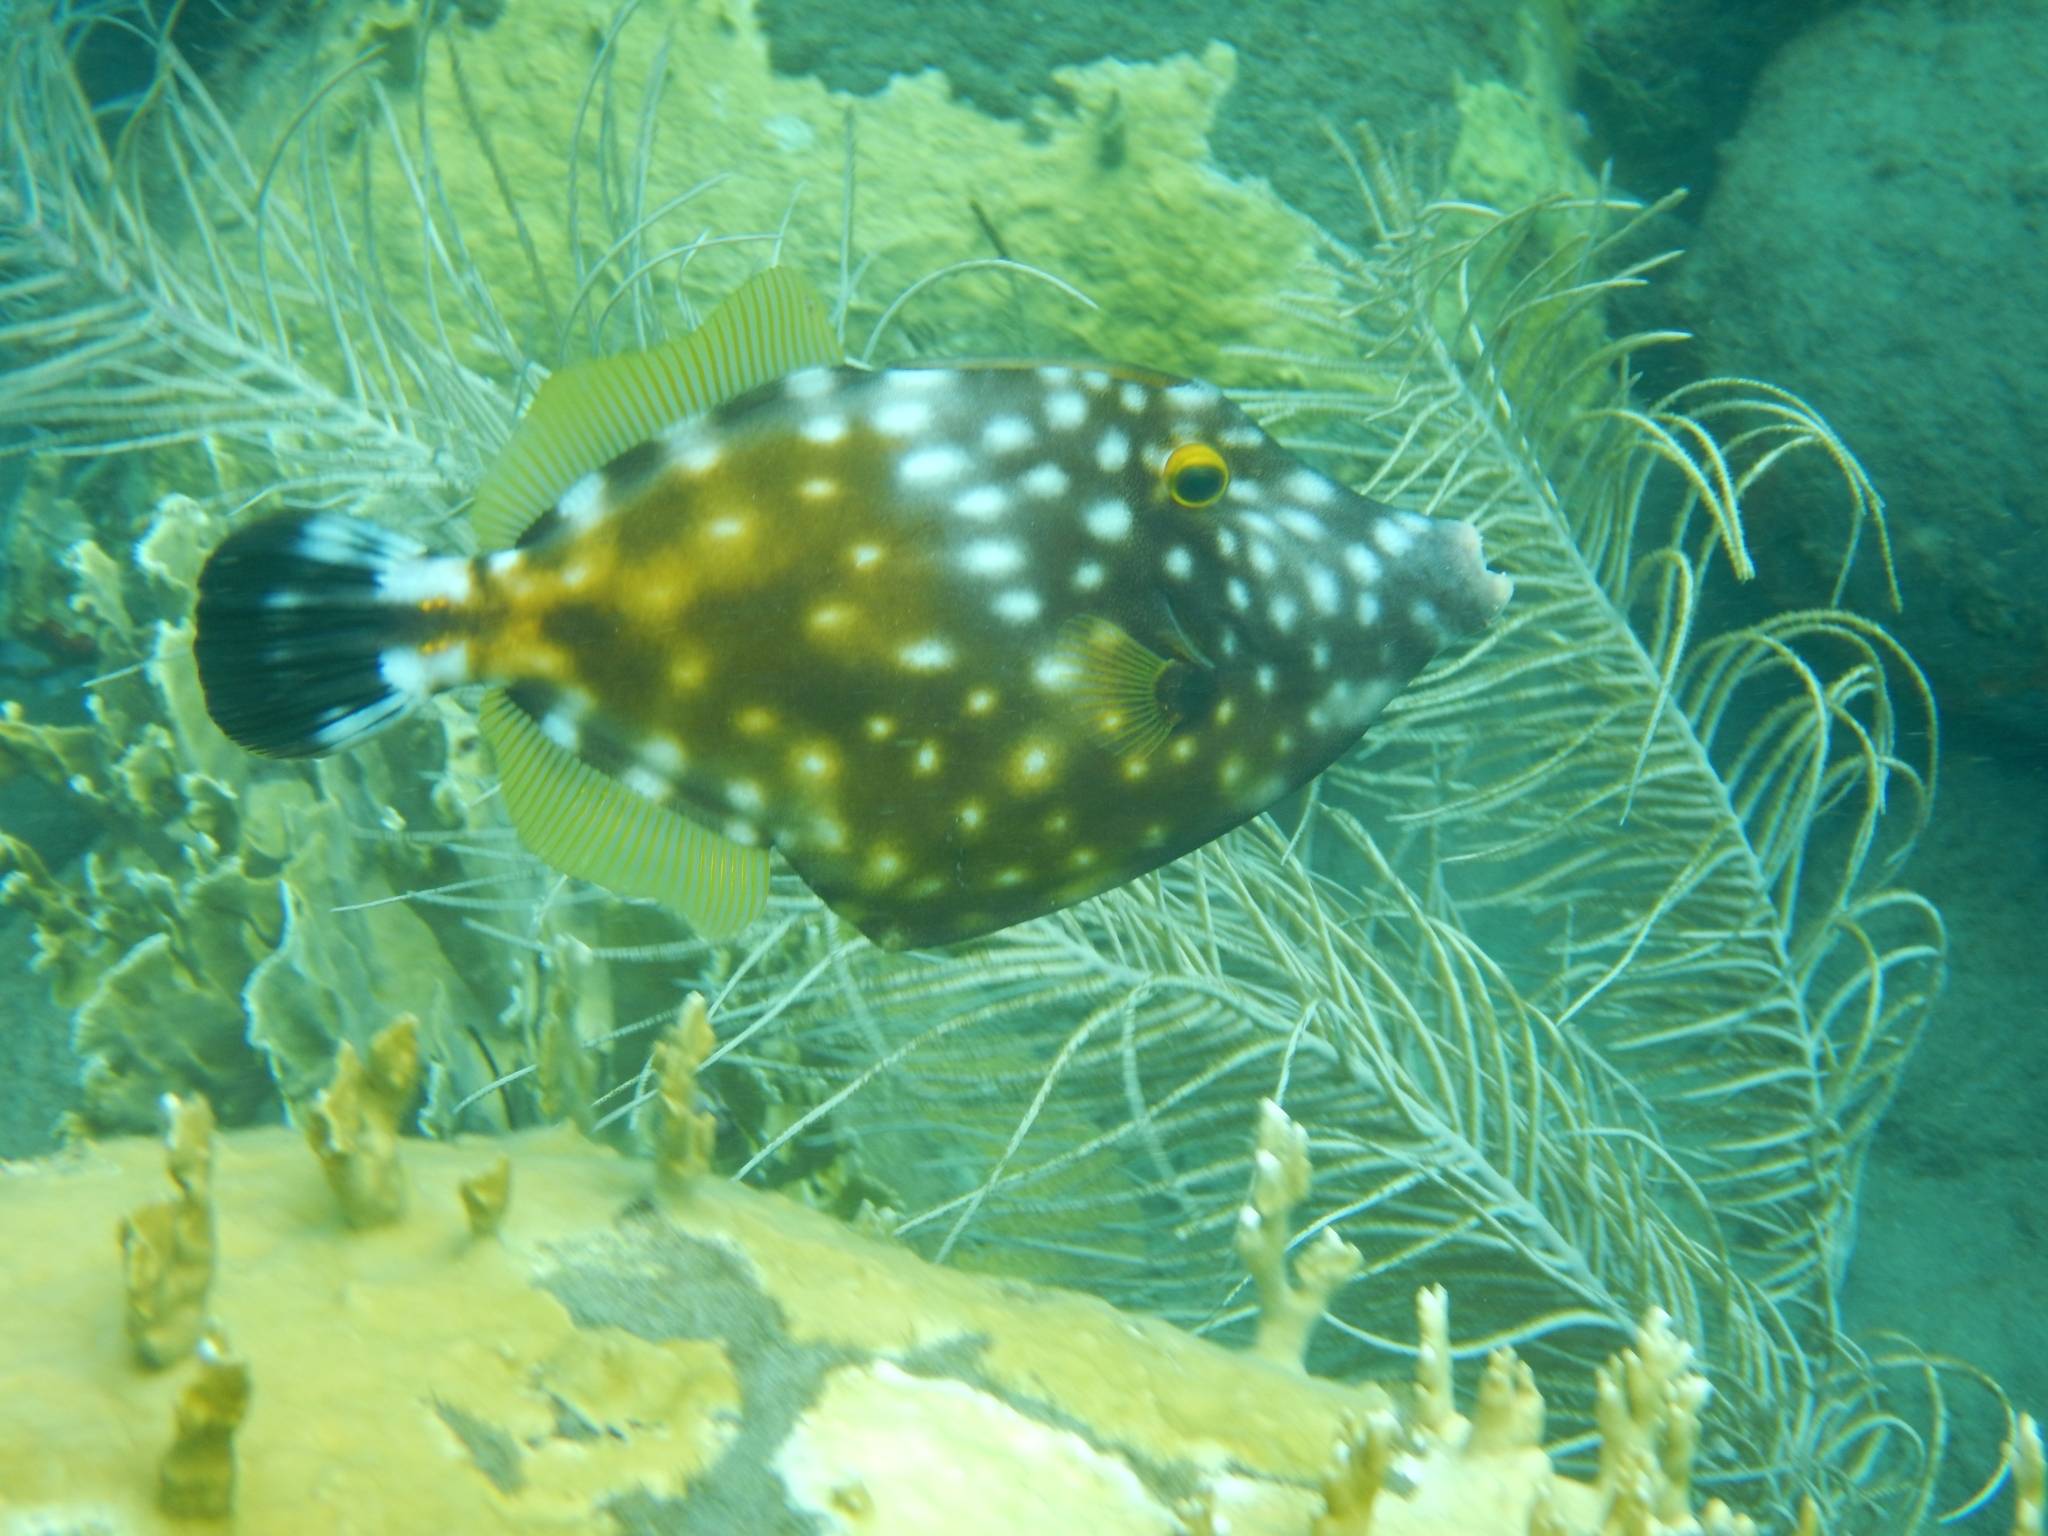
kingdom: Animalia
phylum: Chordata
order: Tetraodontiformes
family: Monacanthidae
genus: Cantherhines
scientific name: Cantherhines macrocerus
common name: Whitespotted filefish
